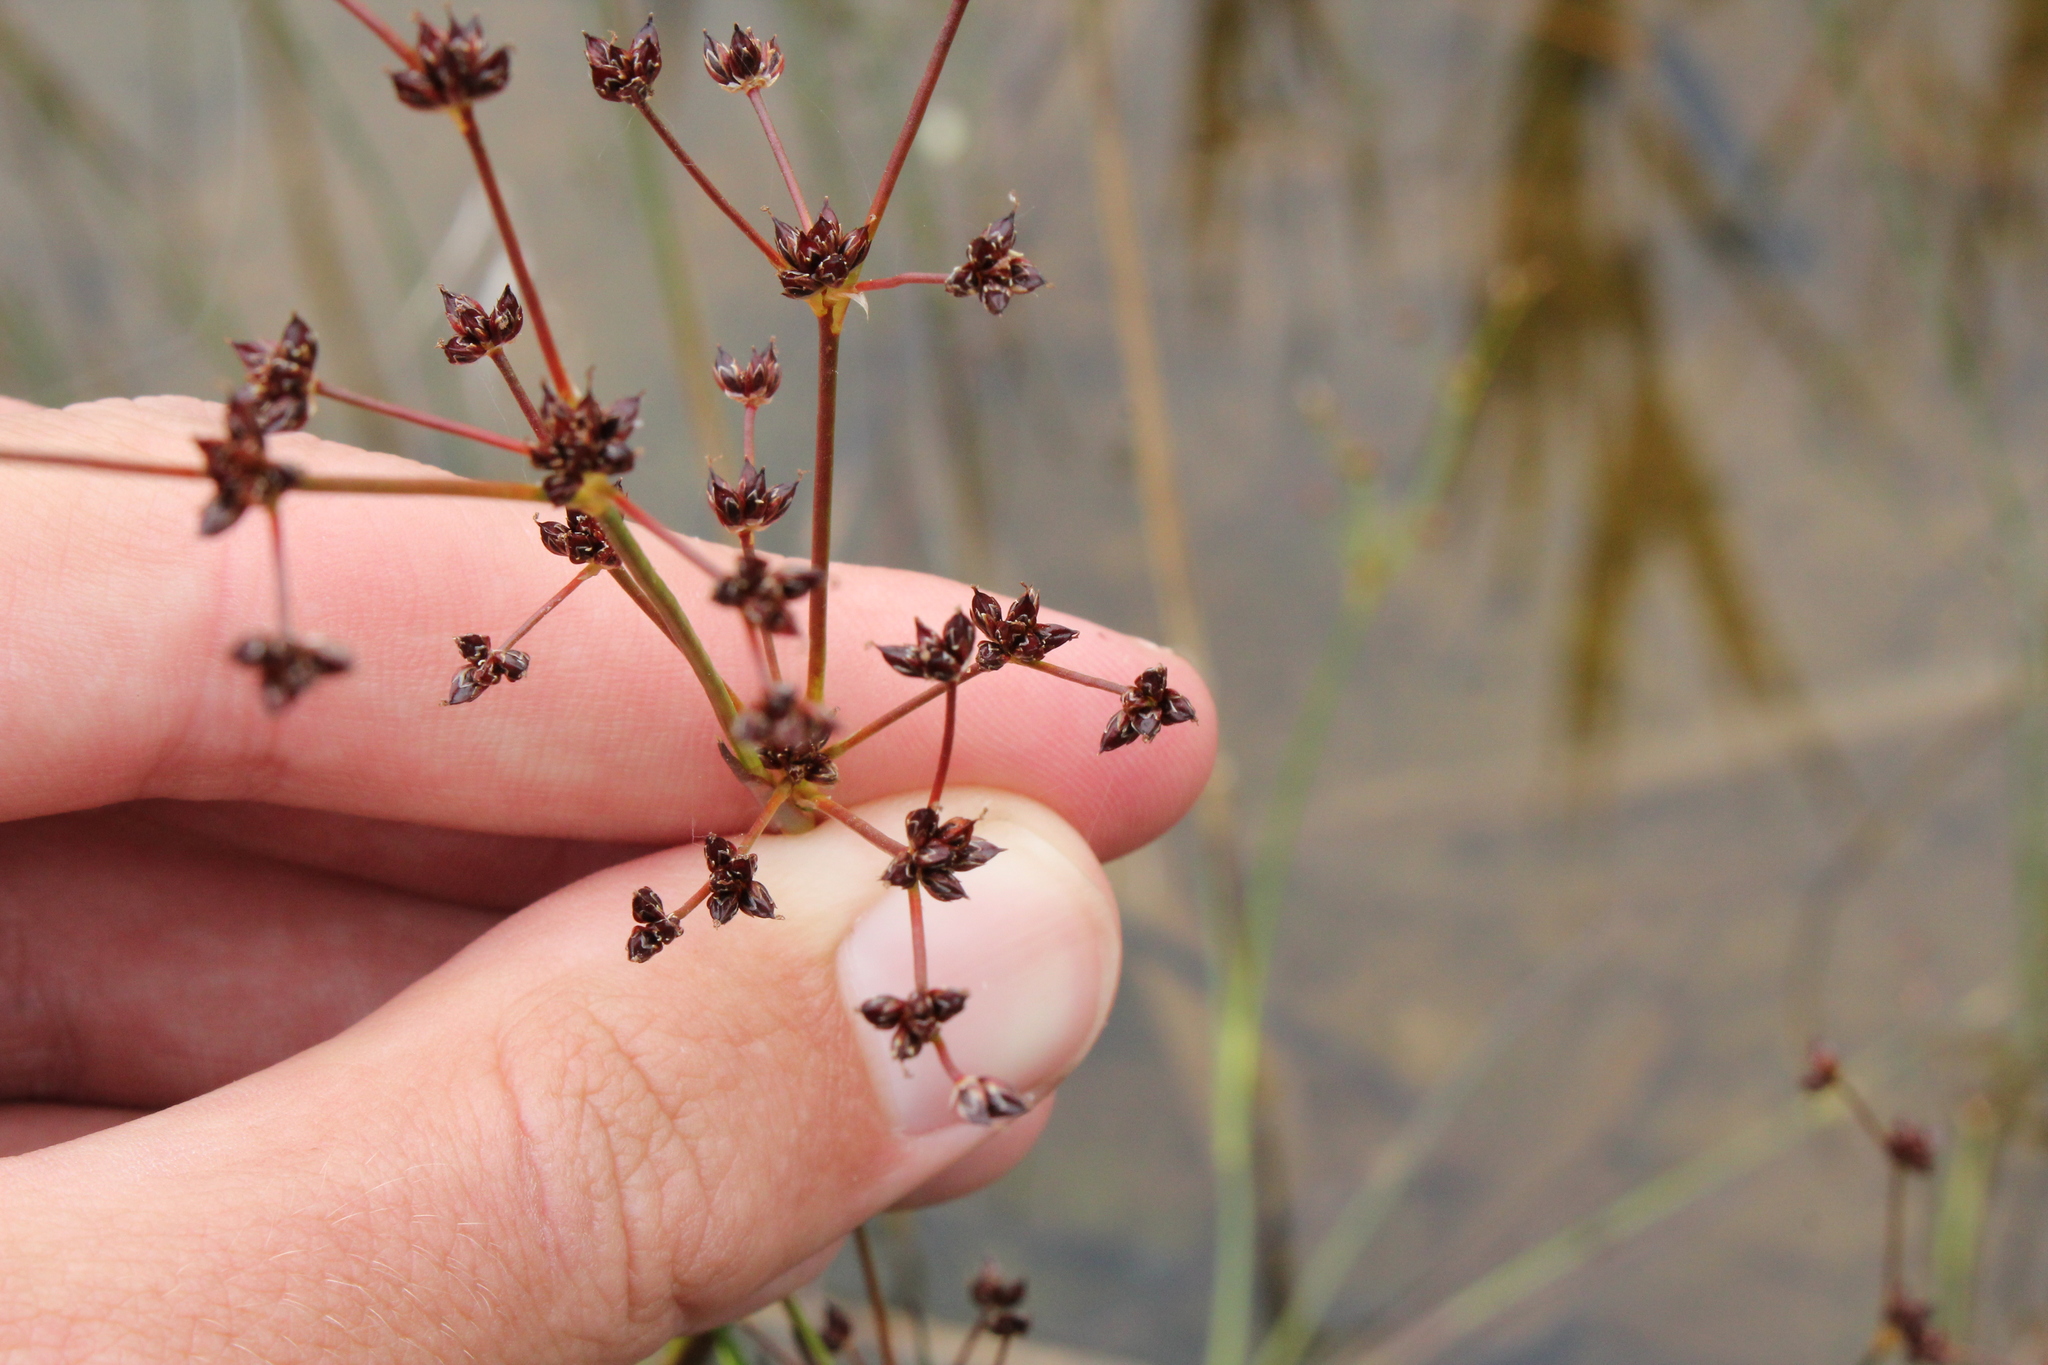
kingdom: Plantae
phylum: Tracheophyta
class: Liliopsida
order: Poales
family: Juncaceae
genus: Juncus
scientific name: Juncus articulatus
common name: Jointed rush
